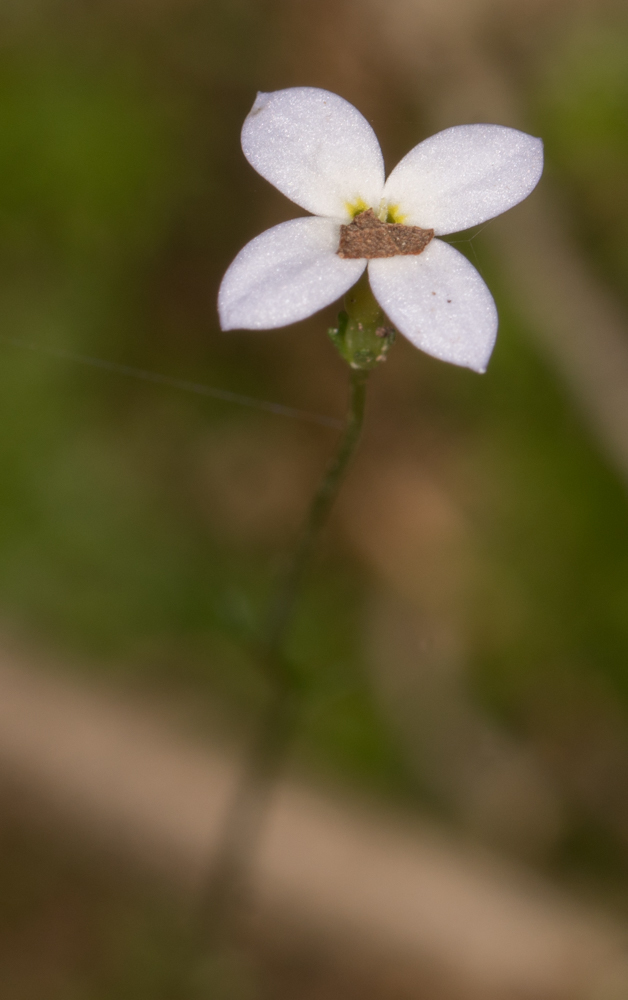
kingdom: Plantae
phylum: Tracheophyta
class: Magnoliopsida
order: Gentianales
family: Rubiaceae
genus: Houstonia
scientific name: Houstonia caerulea
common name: Bluets
